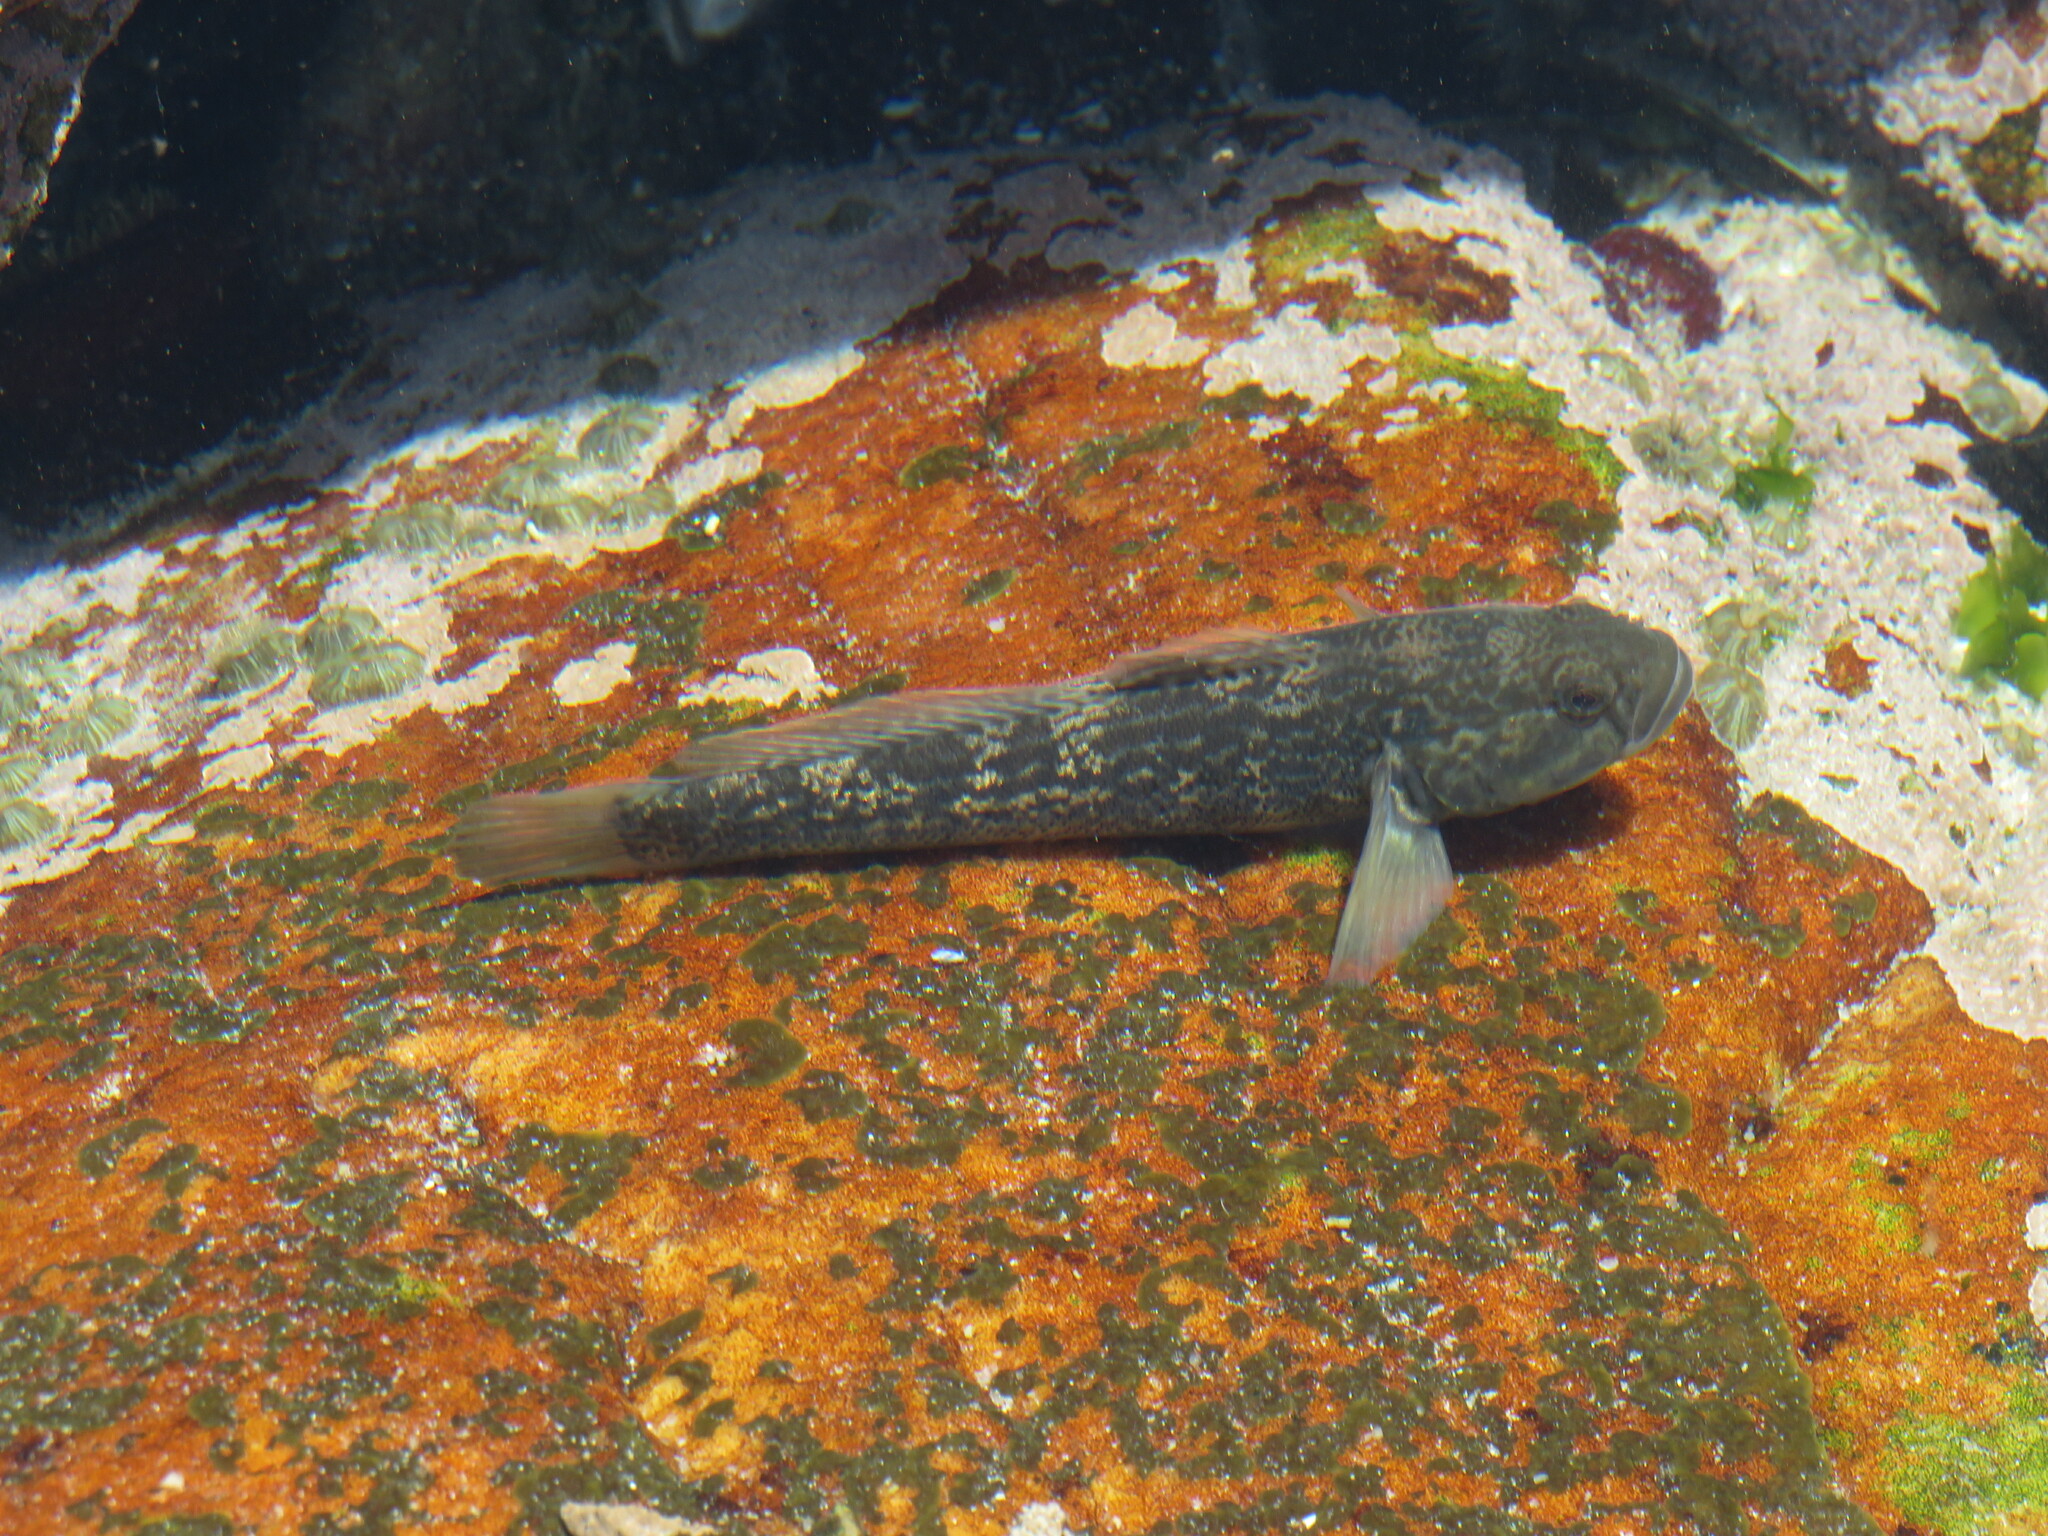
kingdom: Animalia
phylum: Chordata
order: Perciformes
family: Gobiidae
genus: Caffrogobius
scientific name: Caffrogobius caffer
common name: Banded goby
